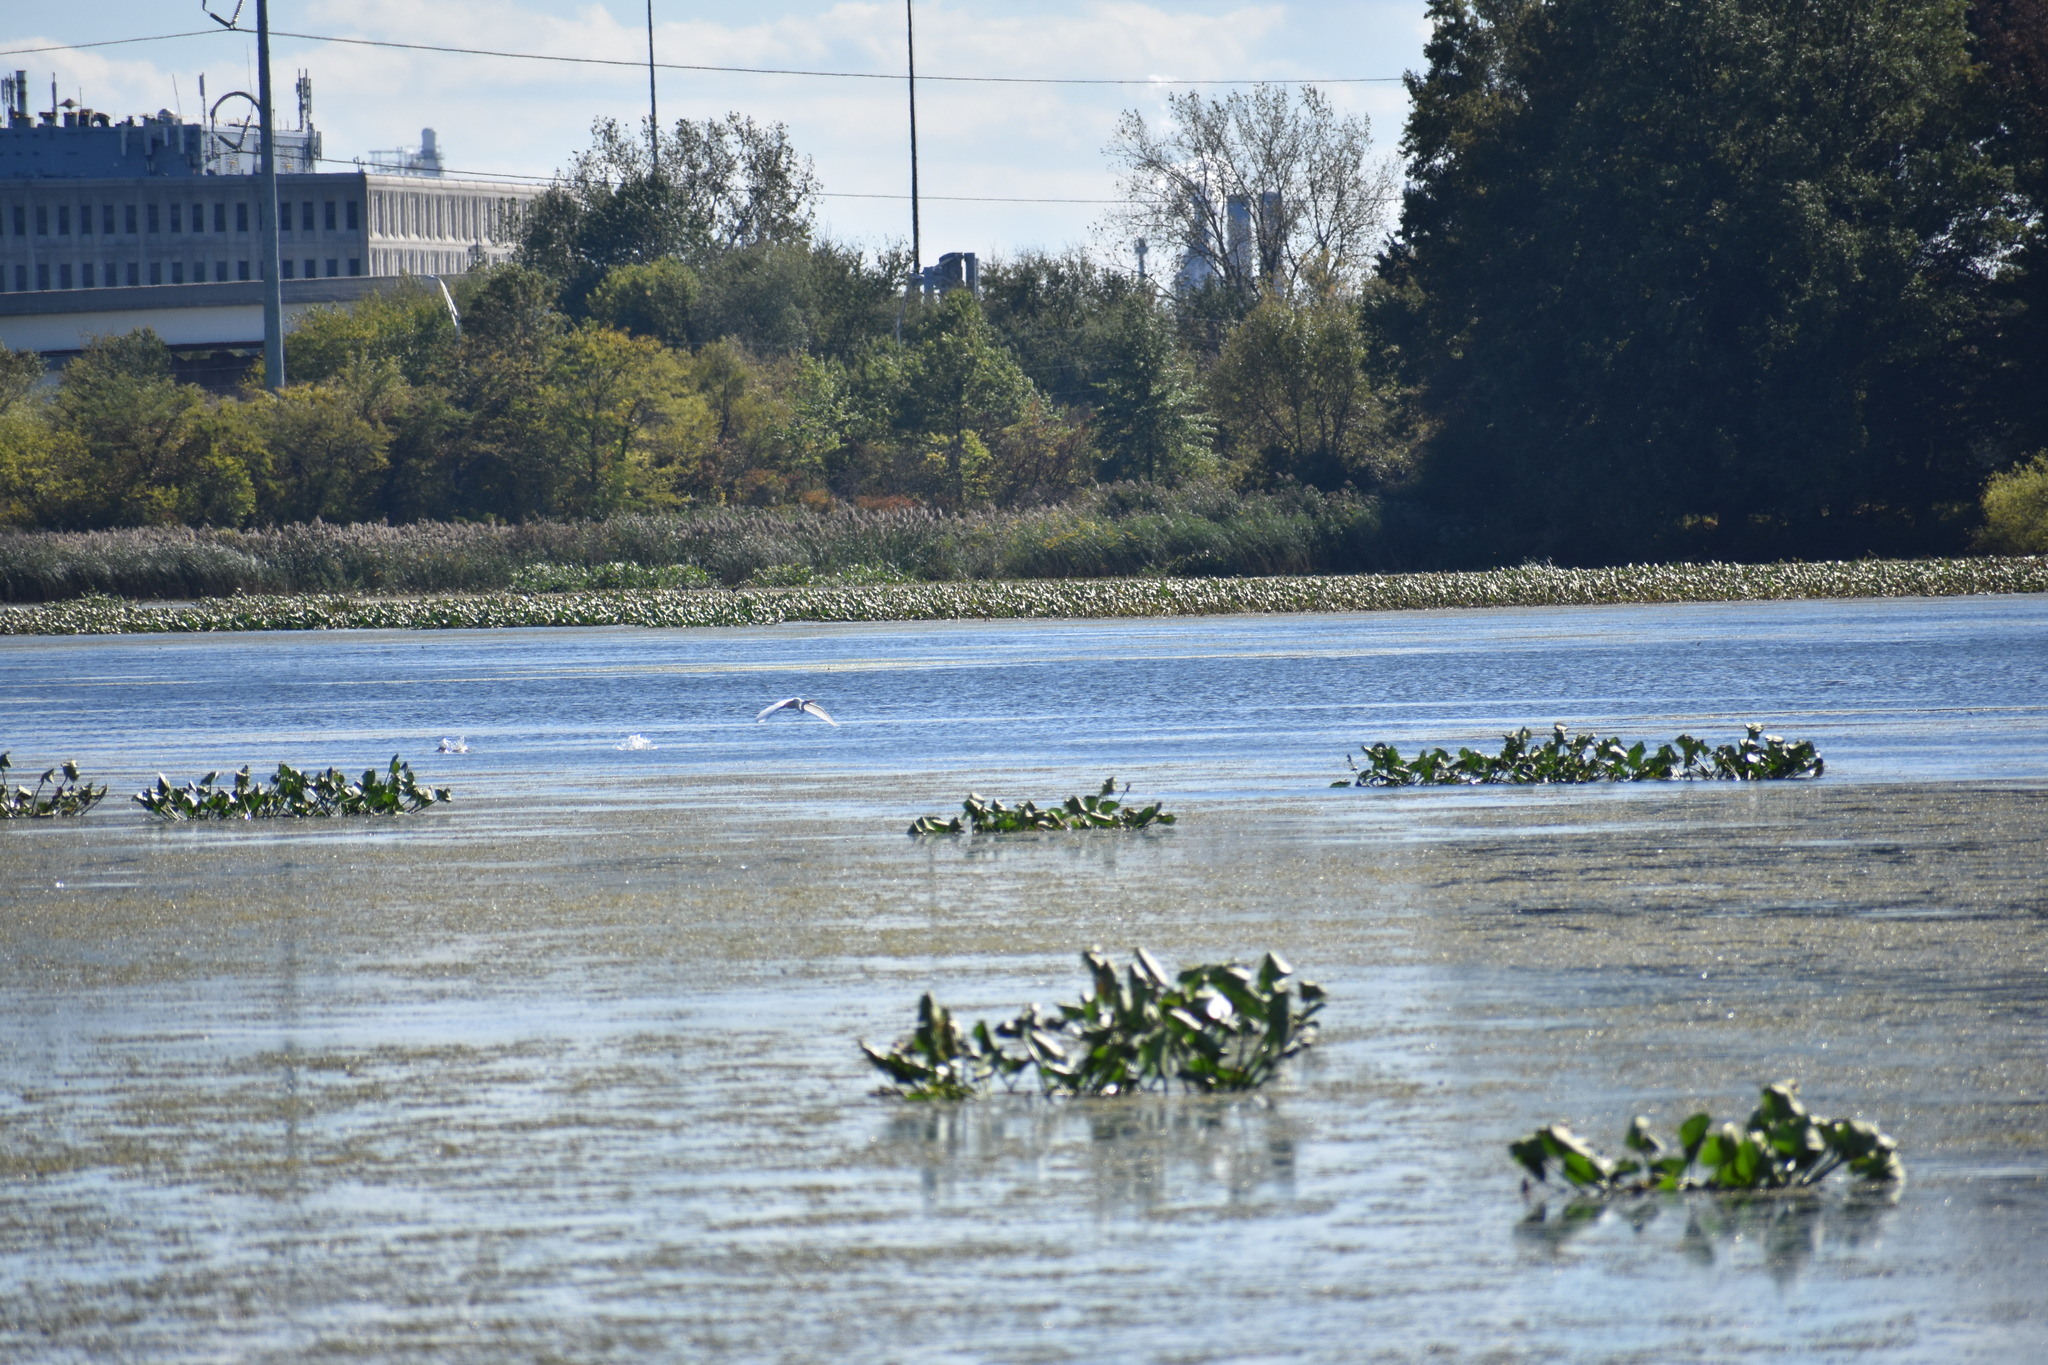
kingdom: Animalia
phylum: Chordata
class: Aves
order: Pelecaniformes
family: Ardeidae
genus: Ardea
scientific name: Ardea alba
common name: Great egret
